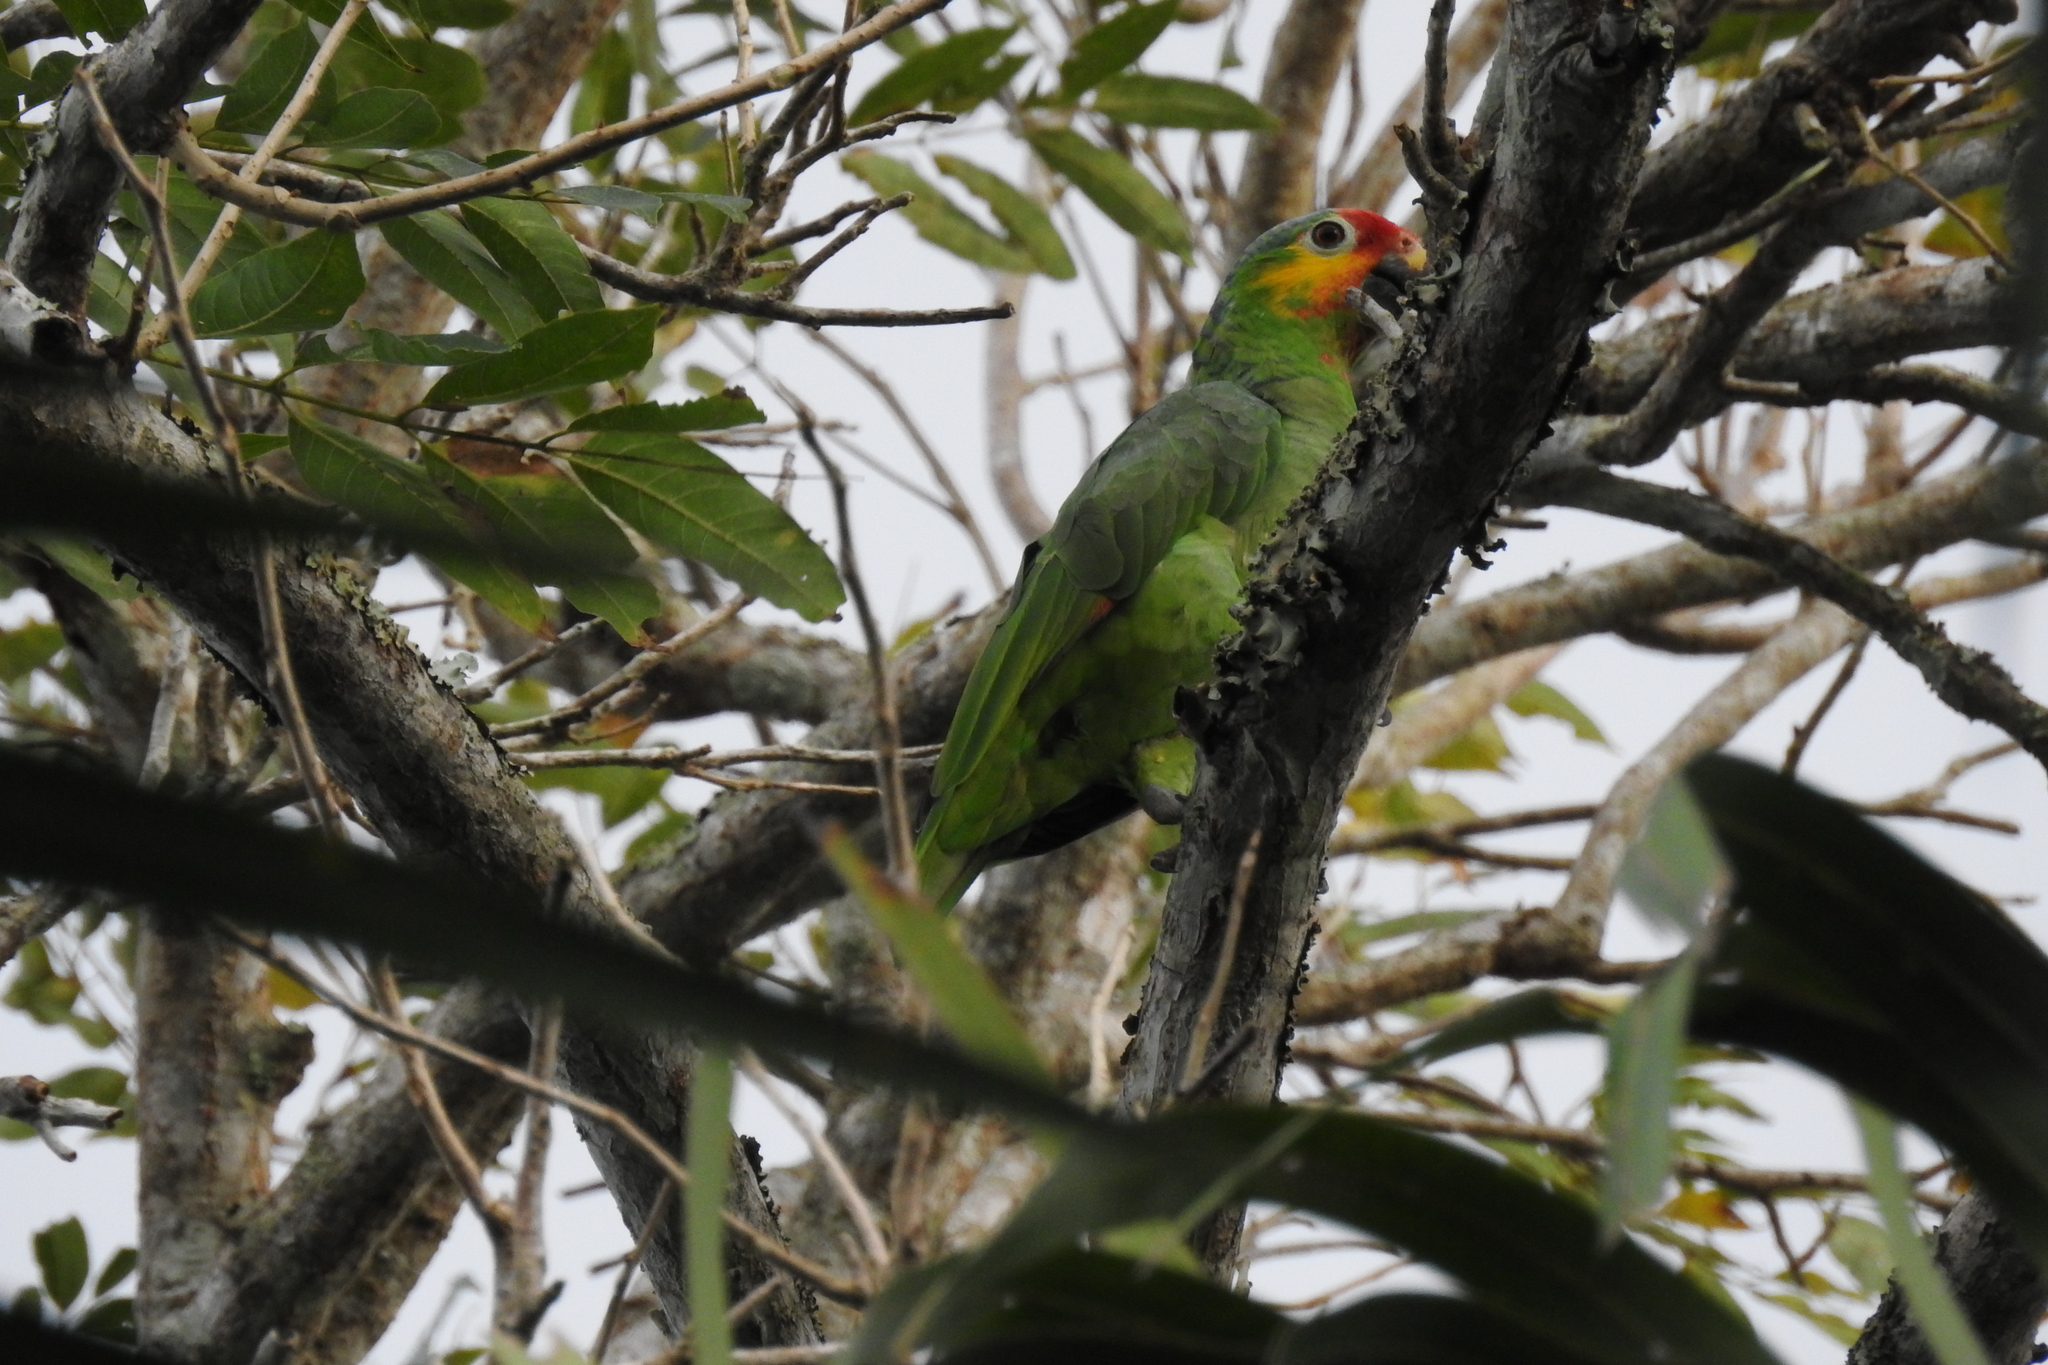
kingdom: Animalia
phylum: Chordata
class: Aves
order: Psittaciformes
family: Psittacidae
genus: Amazona
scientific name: Amazona autumnalis
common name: Red-lored amazon
